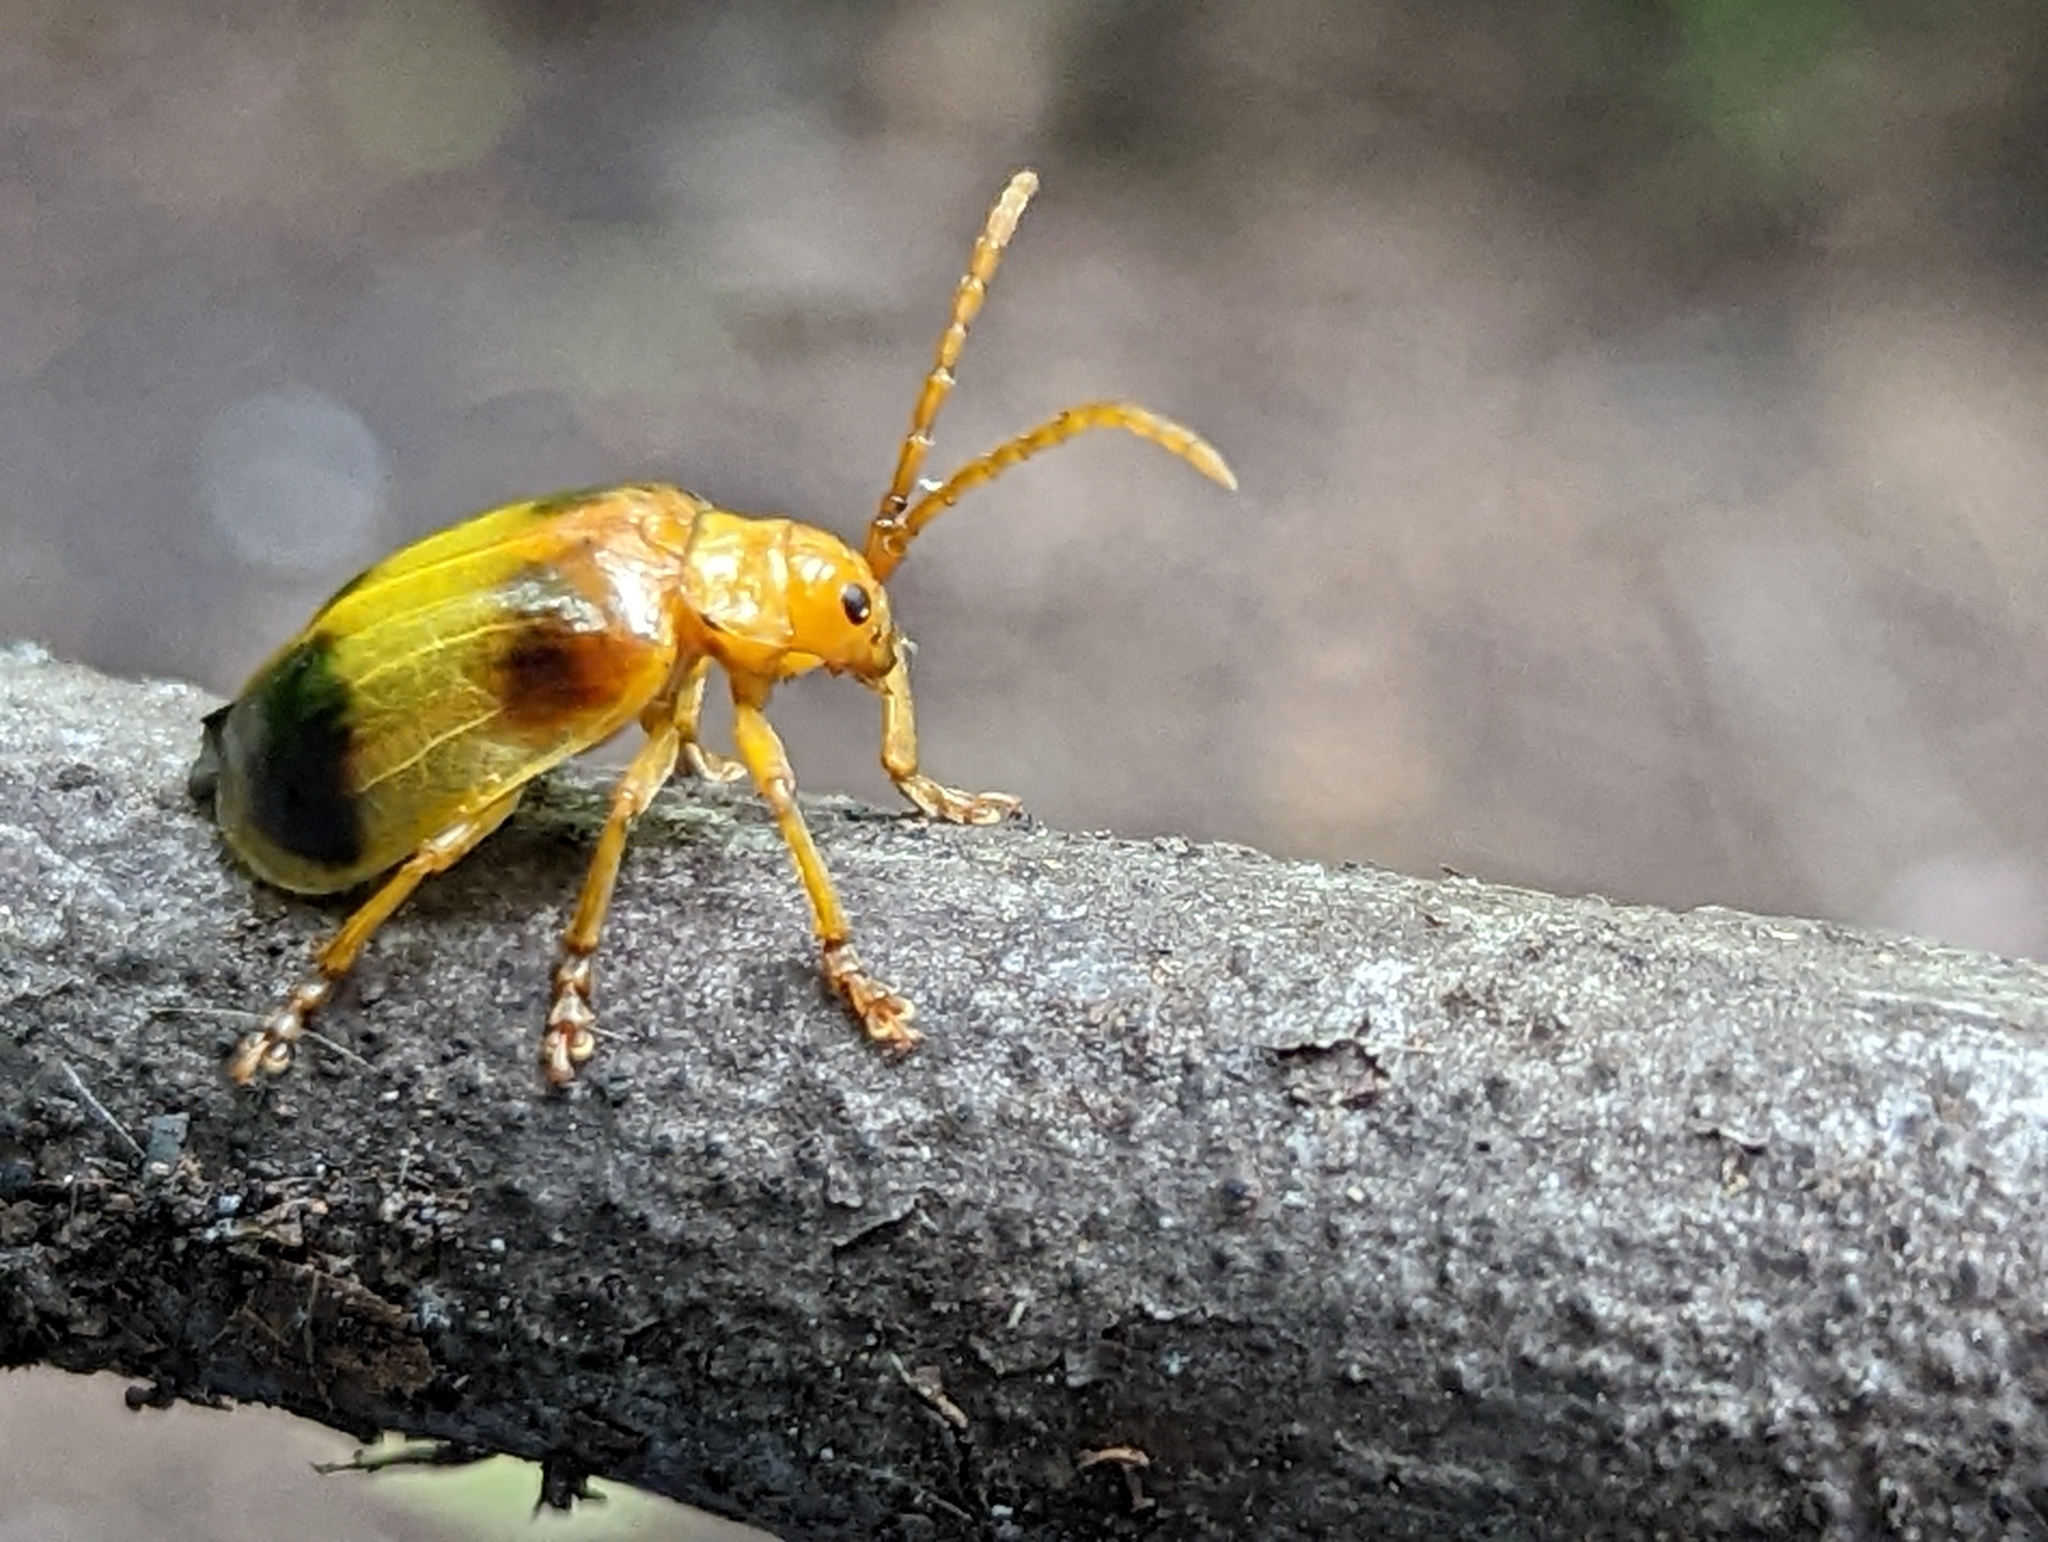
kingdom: Animalia
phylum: Arthropoda
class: Insecta
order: Coleoptera
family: Chrysomelidae
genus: Monocesta
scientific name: Monocesta coryli
